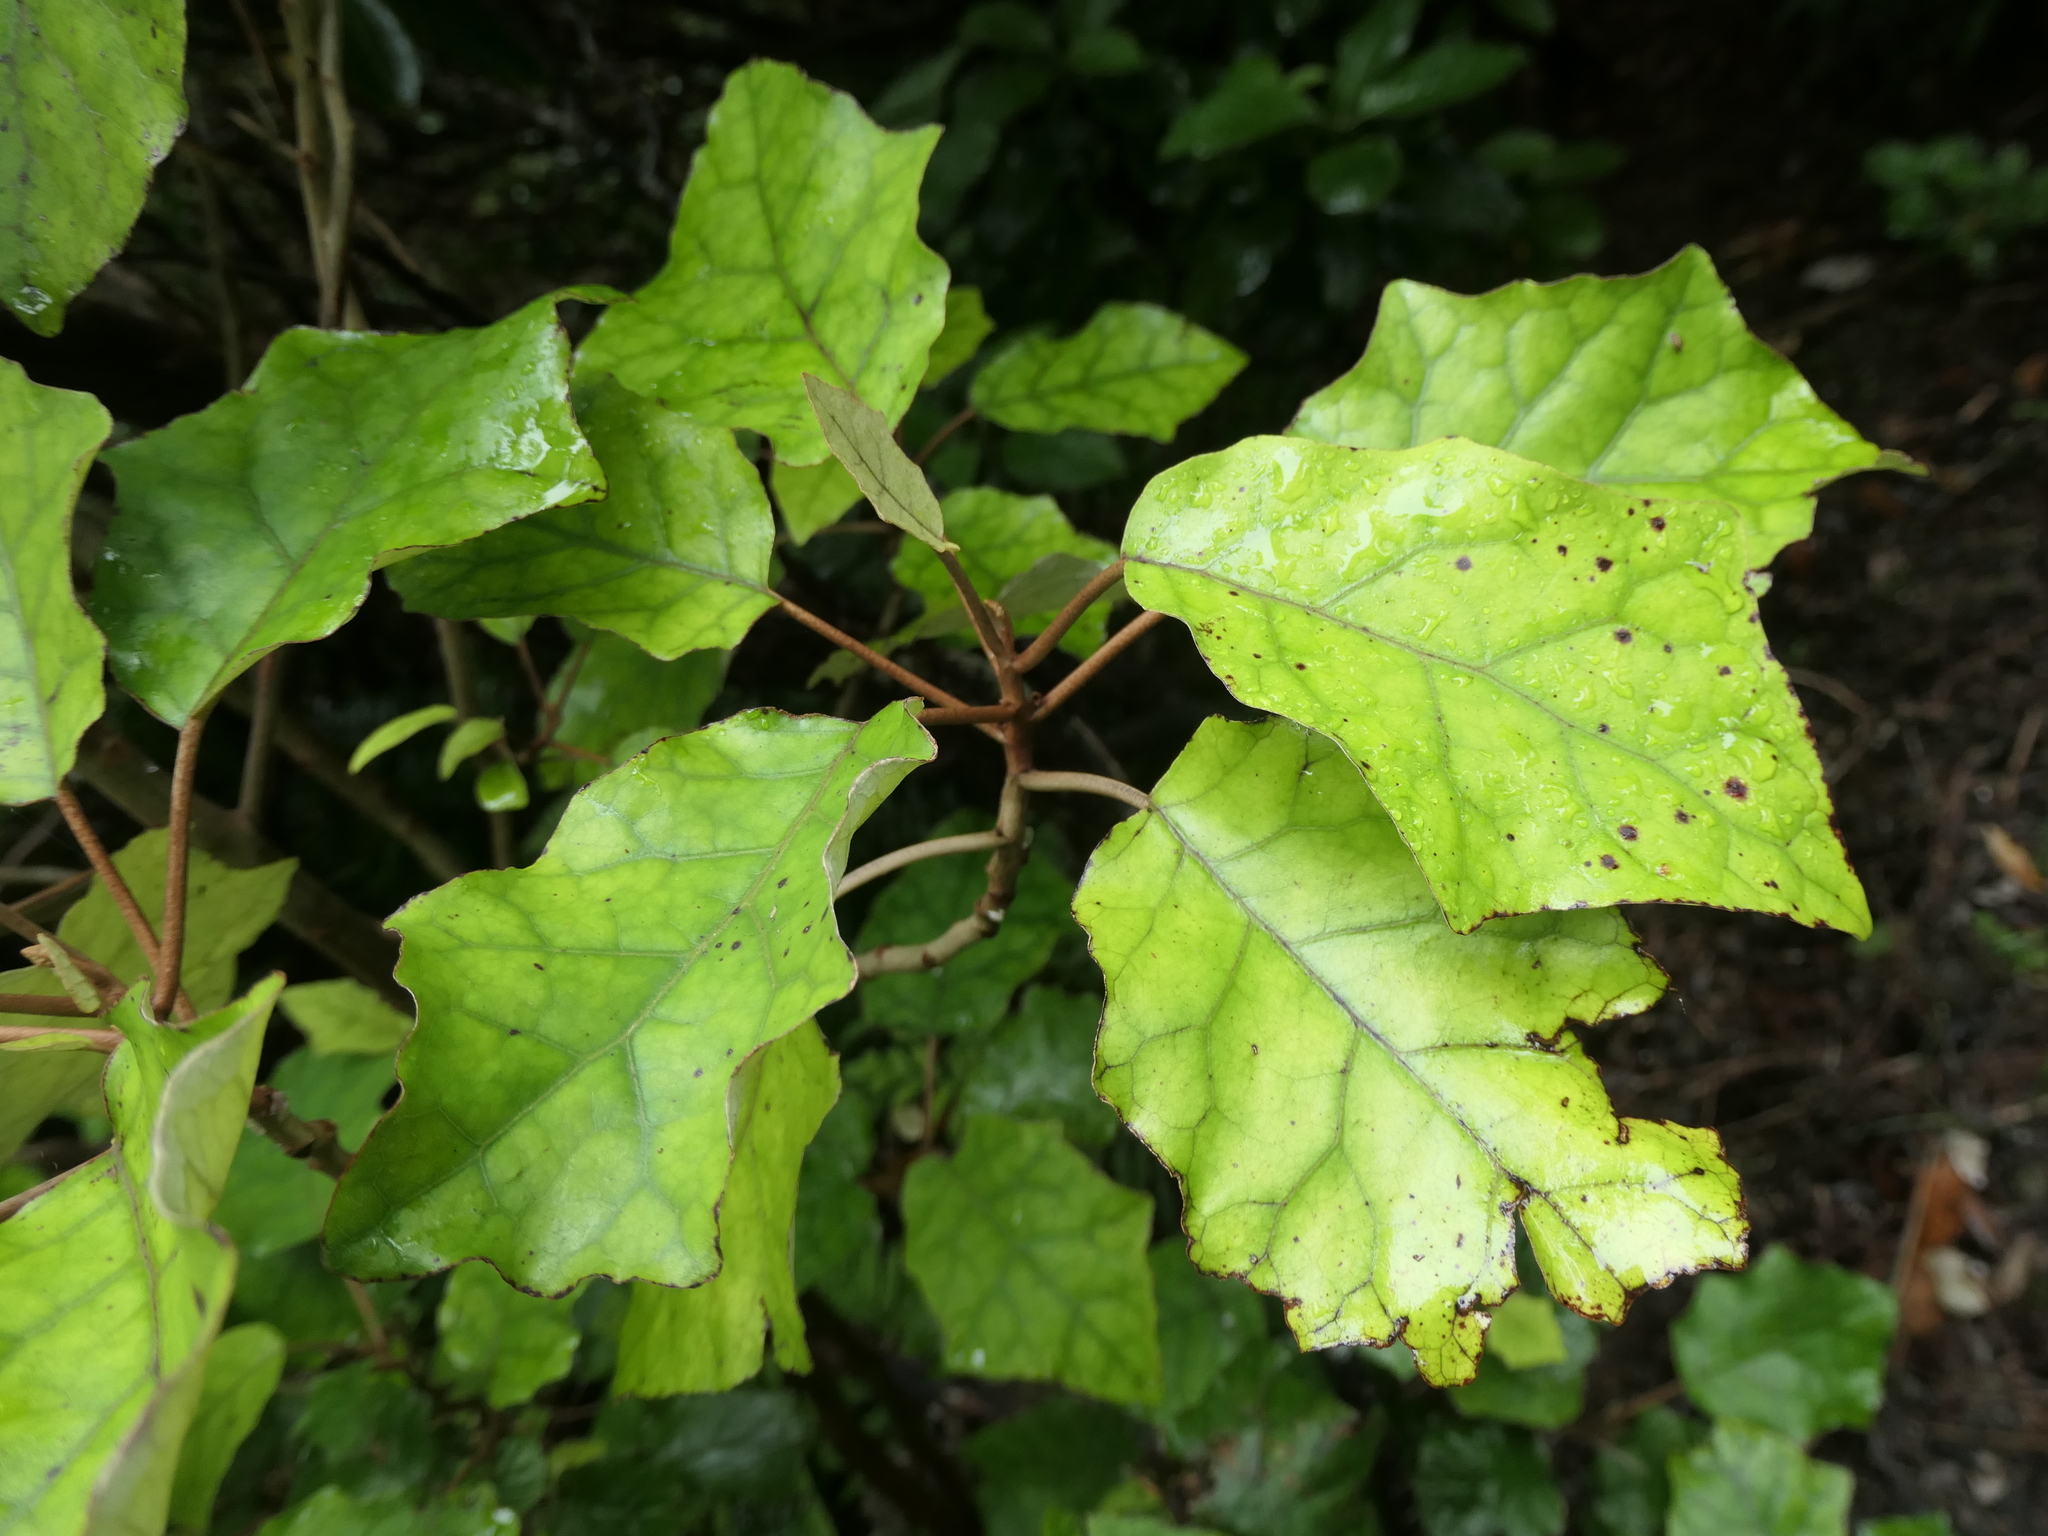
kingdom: Plantae
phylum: Tracheophyta
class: Magnoliopsida
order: Asterales
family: Asteraceae
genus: Brachyglottis
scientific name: Brachyglottis repanda
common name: Hedge ragwort
